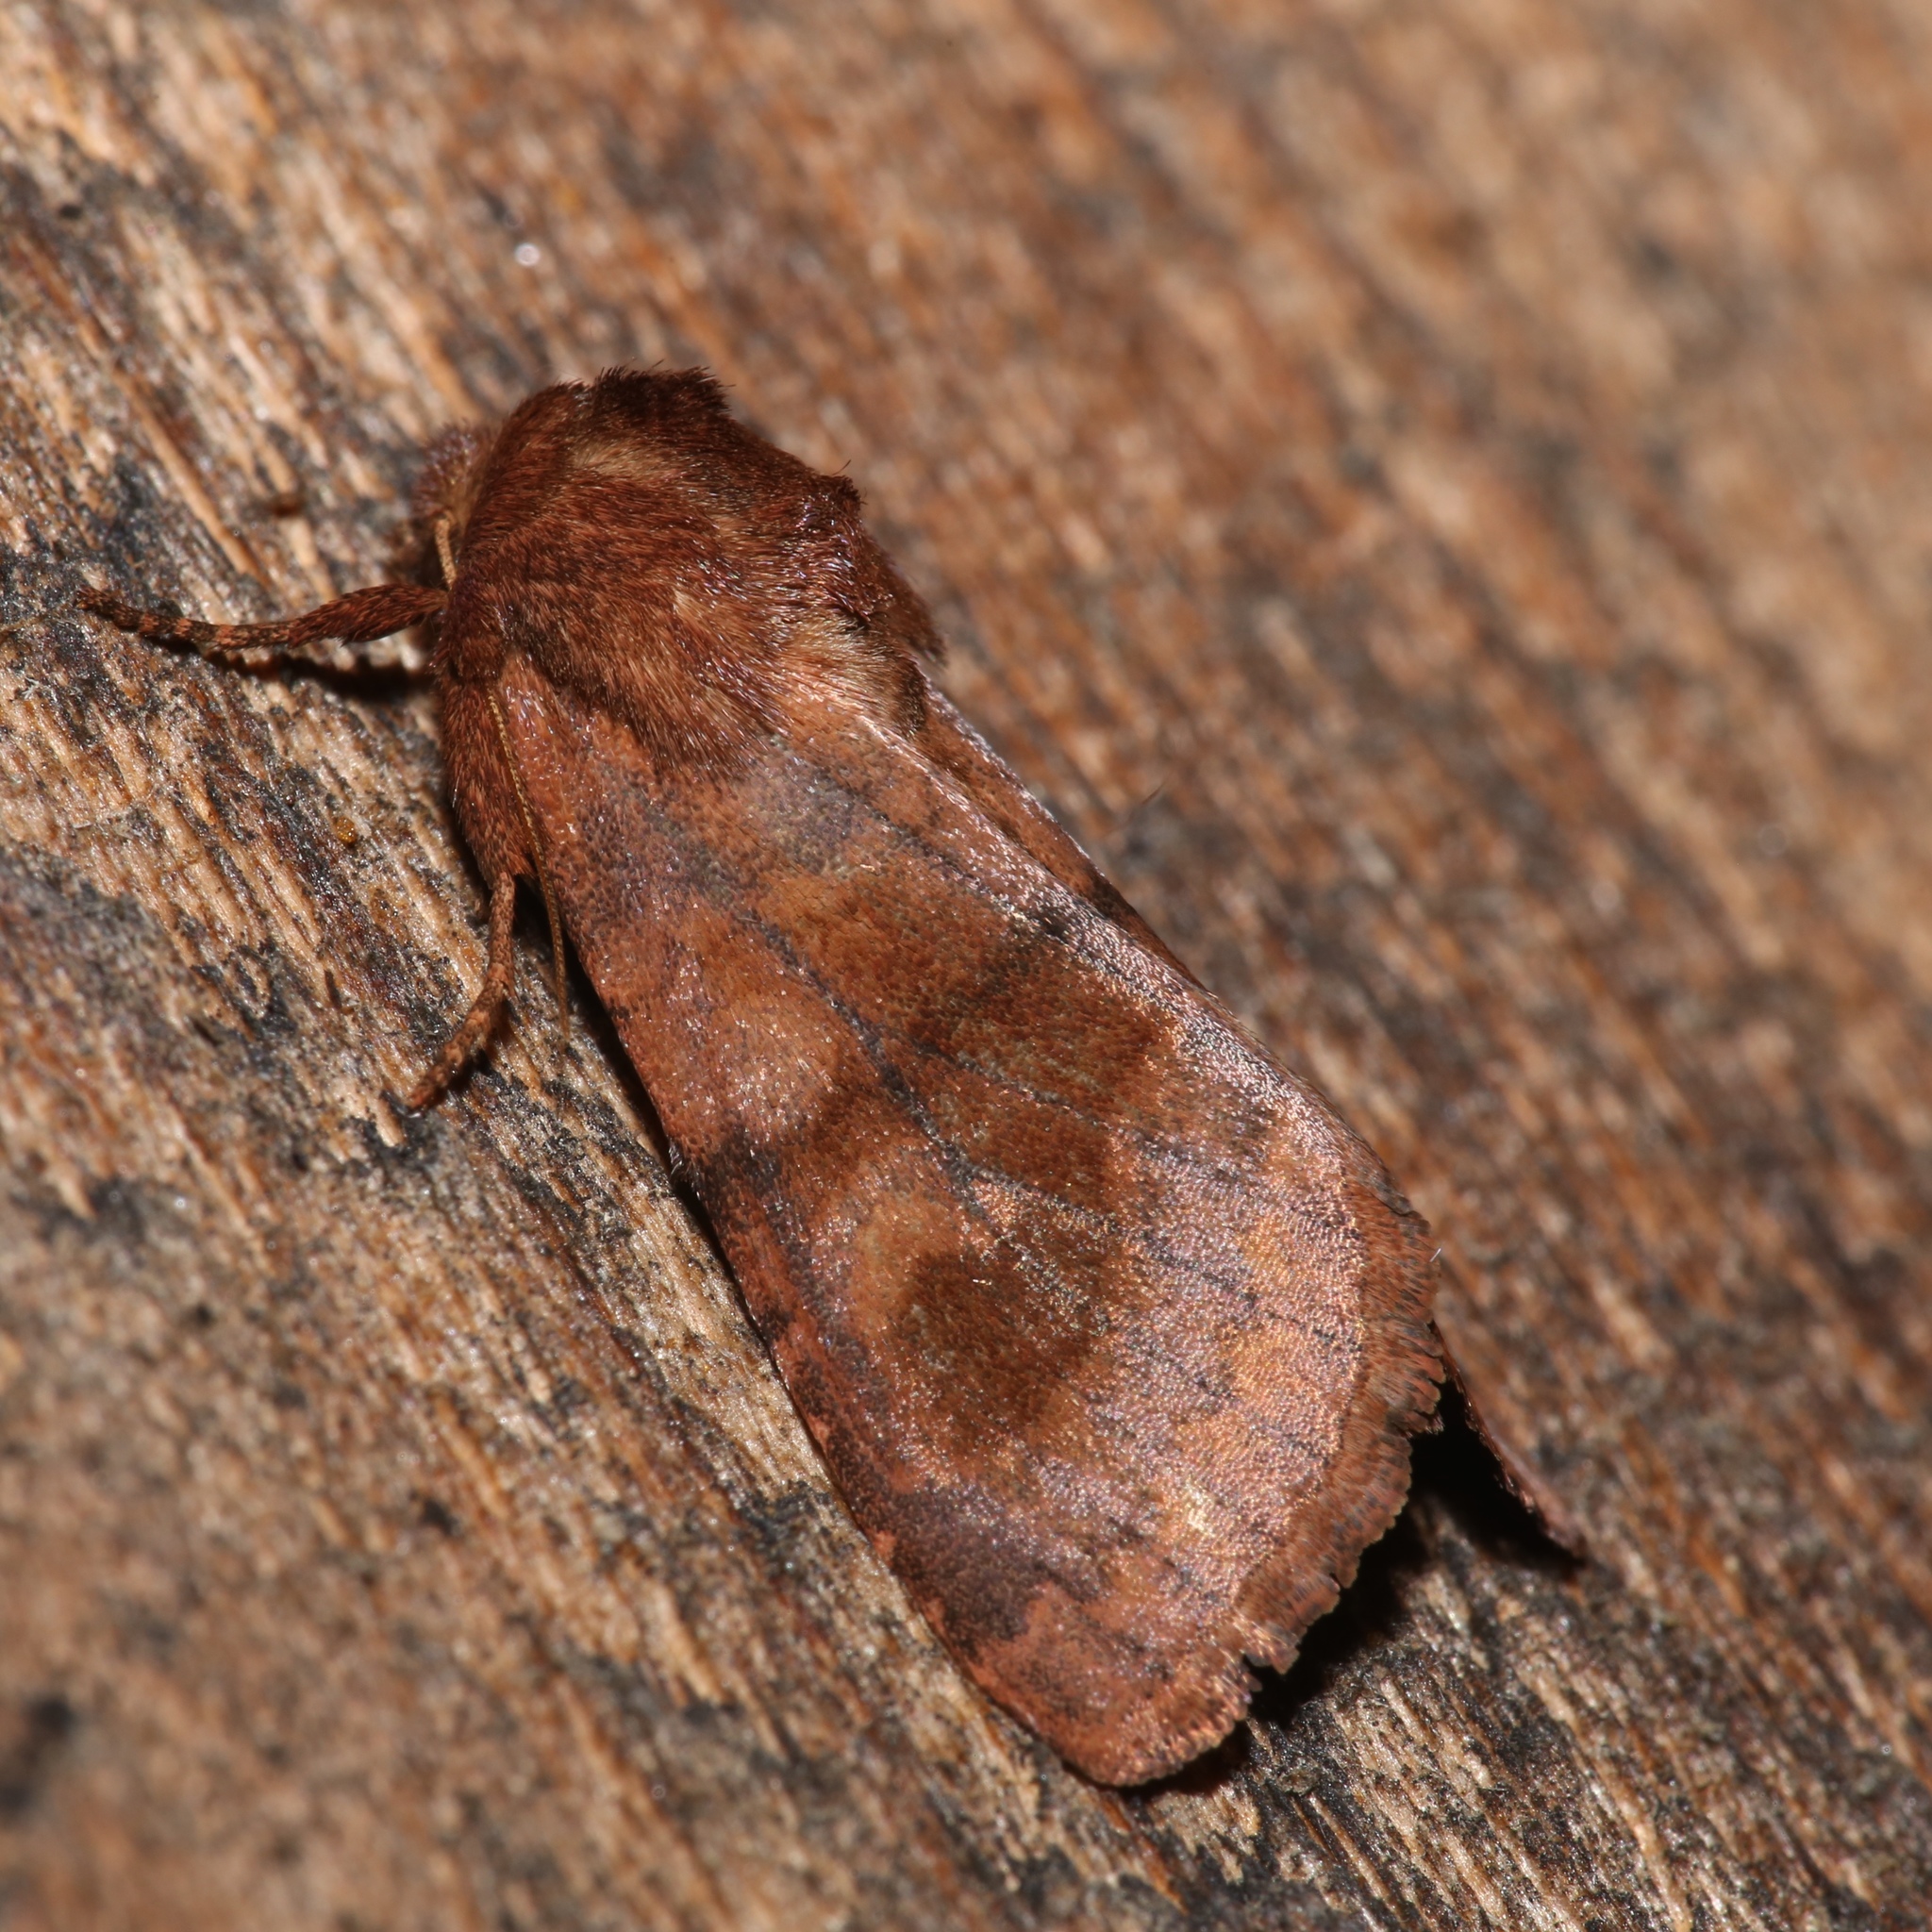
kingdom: Animalia
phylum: Arthropoda
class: Insecta
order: Lepidoptera
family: Noctuidae
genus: Nephelodes
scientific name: Nephelodes minians
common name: Bronzed cutworm
